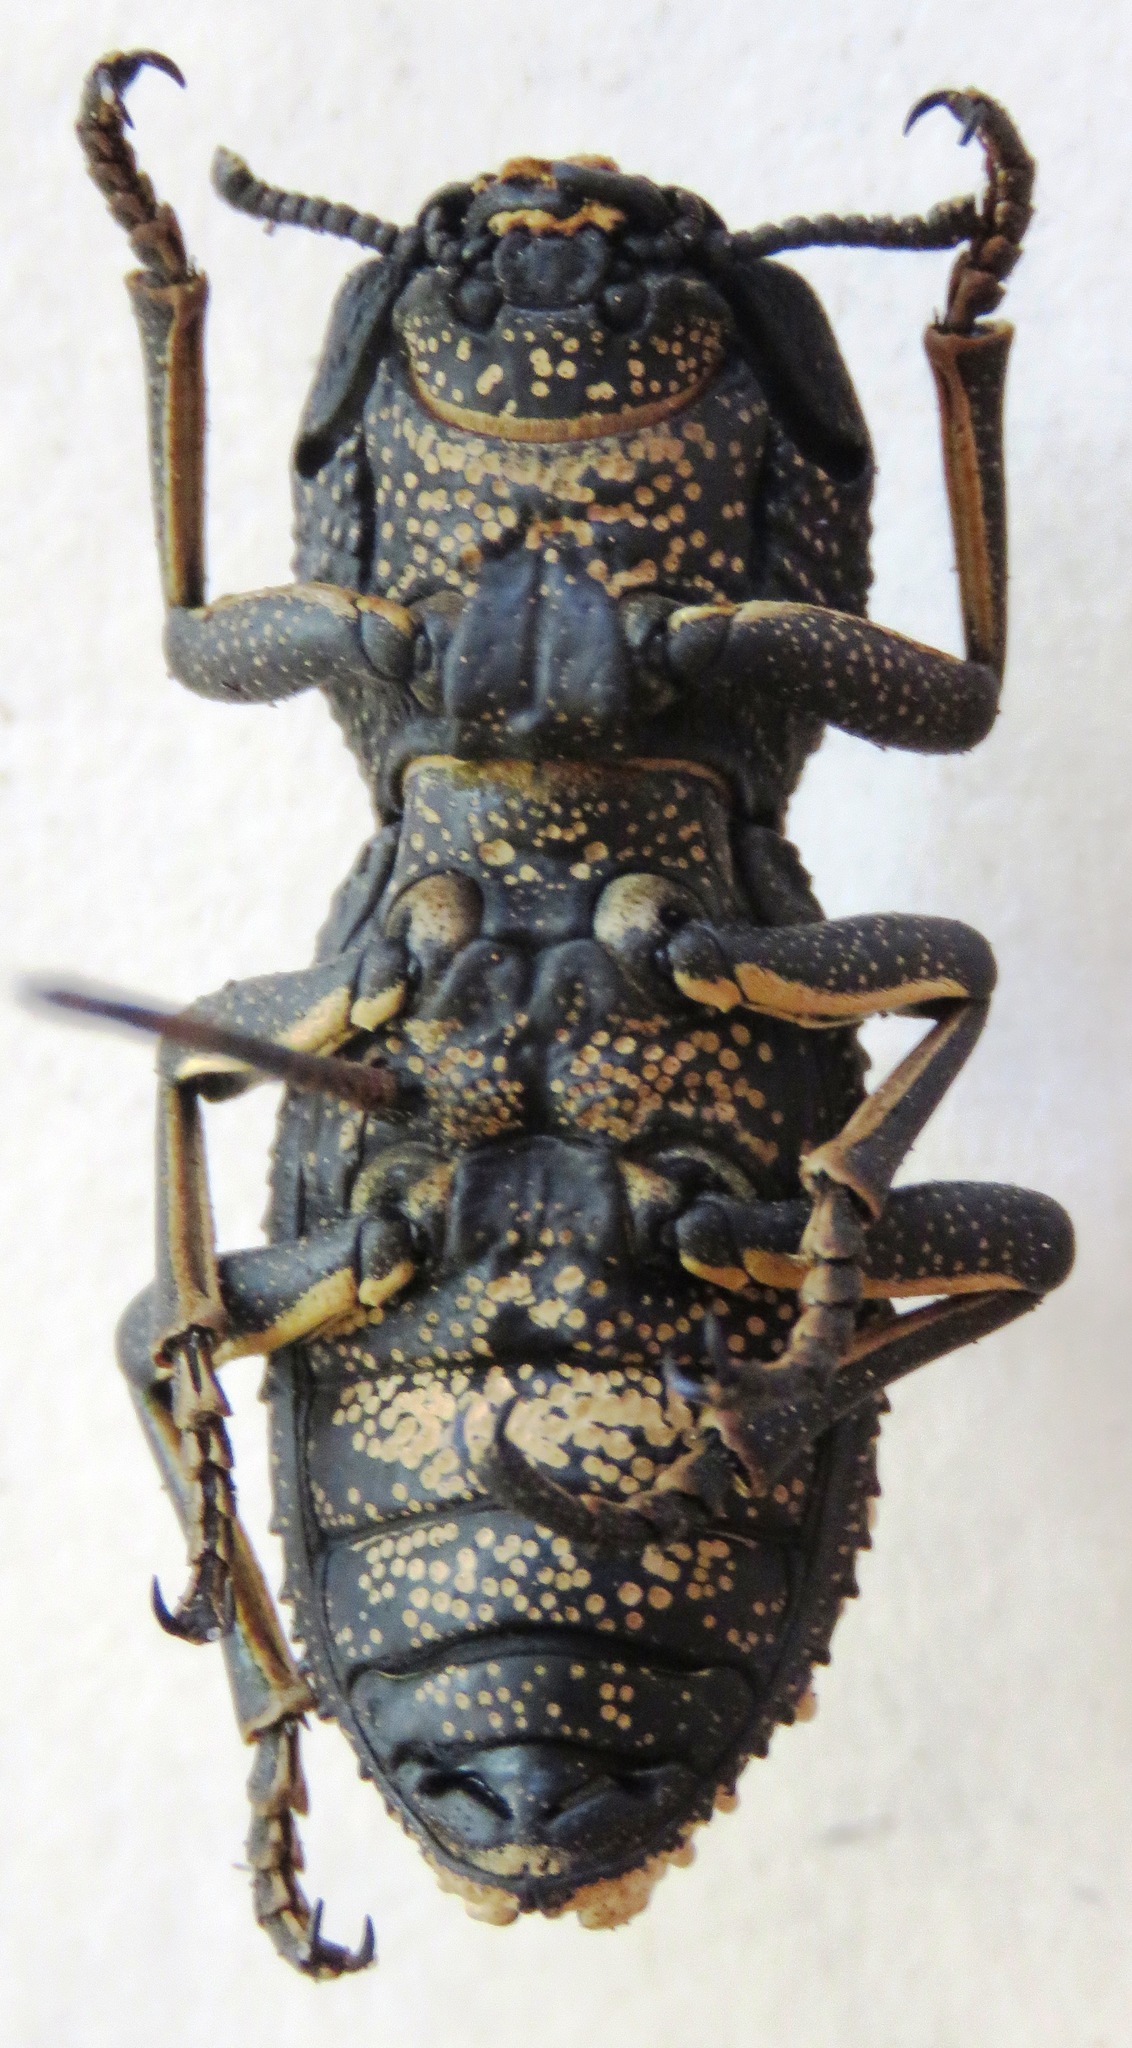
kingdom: Animalia
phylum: Arthropoda
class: Insecta
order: Coleoptera
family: Zopheridae
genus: Zopherus
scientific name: Zopherus
